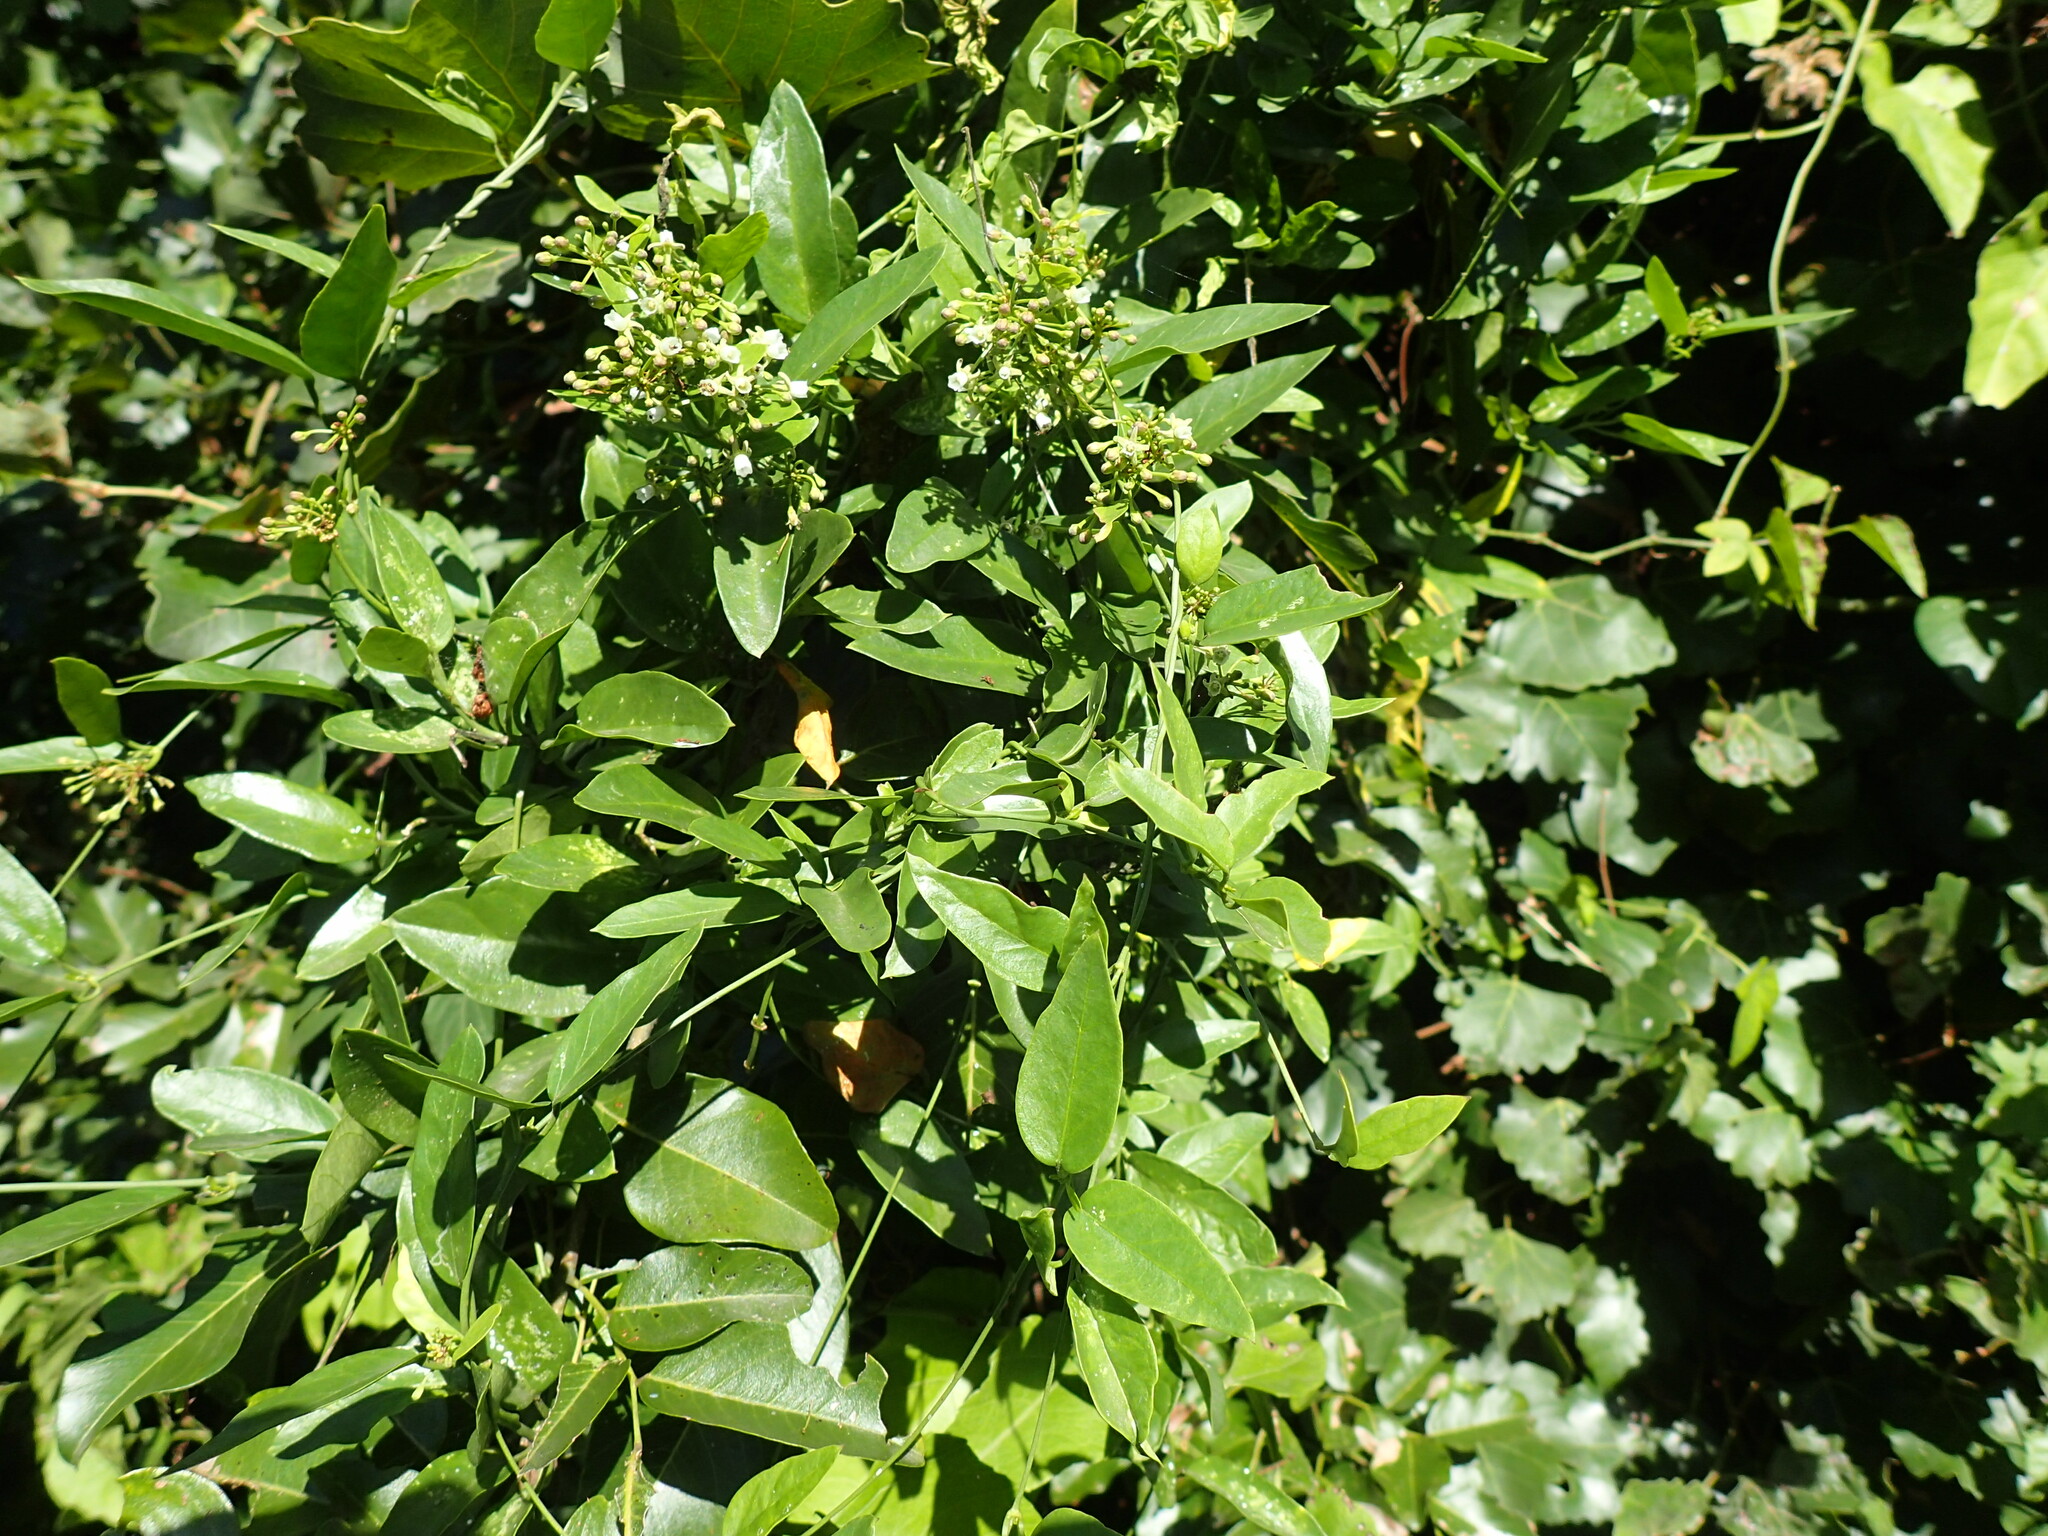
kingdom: Plantae
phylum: Tracheophyta
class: Magnoliopsida
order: Gentianales
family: Apocynaceae
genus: Cynanchum
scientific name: Cynanchum ellipticum
